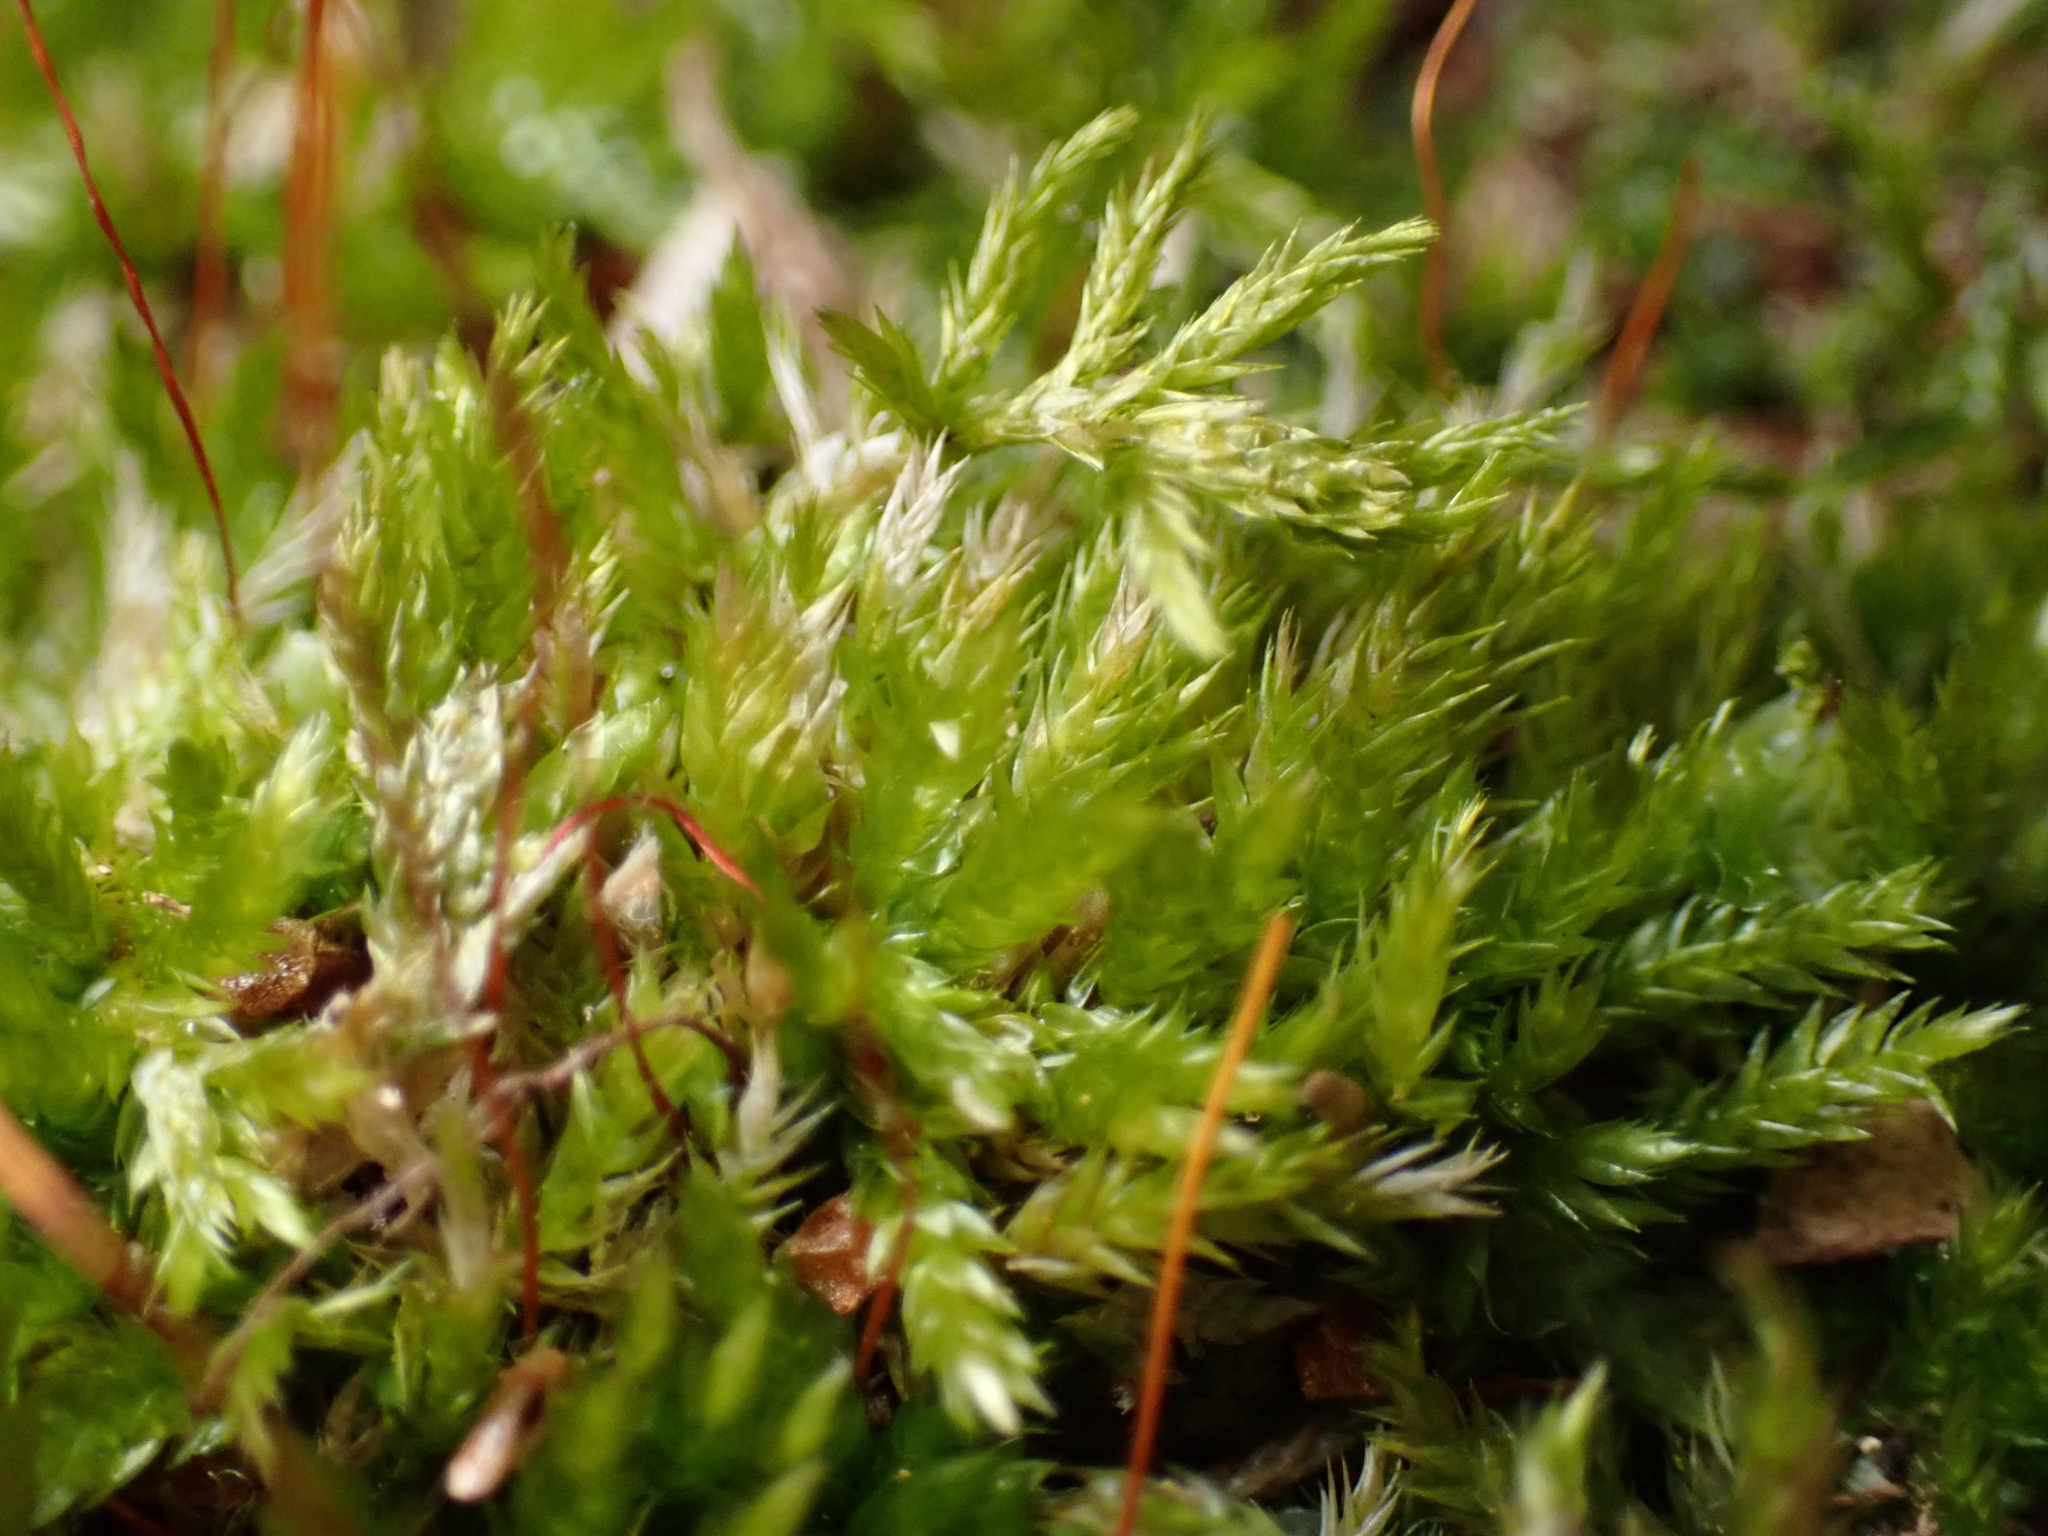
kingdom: Plantae
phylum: Bryophyta
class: Bryopsida
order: Hypnales
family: Callicladiaceae
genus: Callicladium
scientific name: Callicladium haldanianum
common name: Beautiful branch moss
